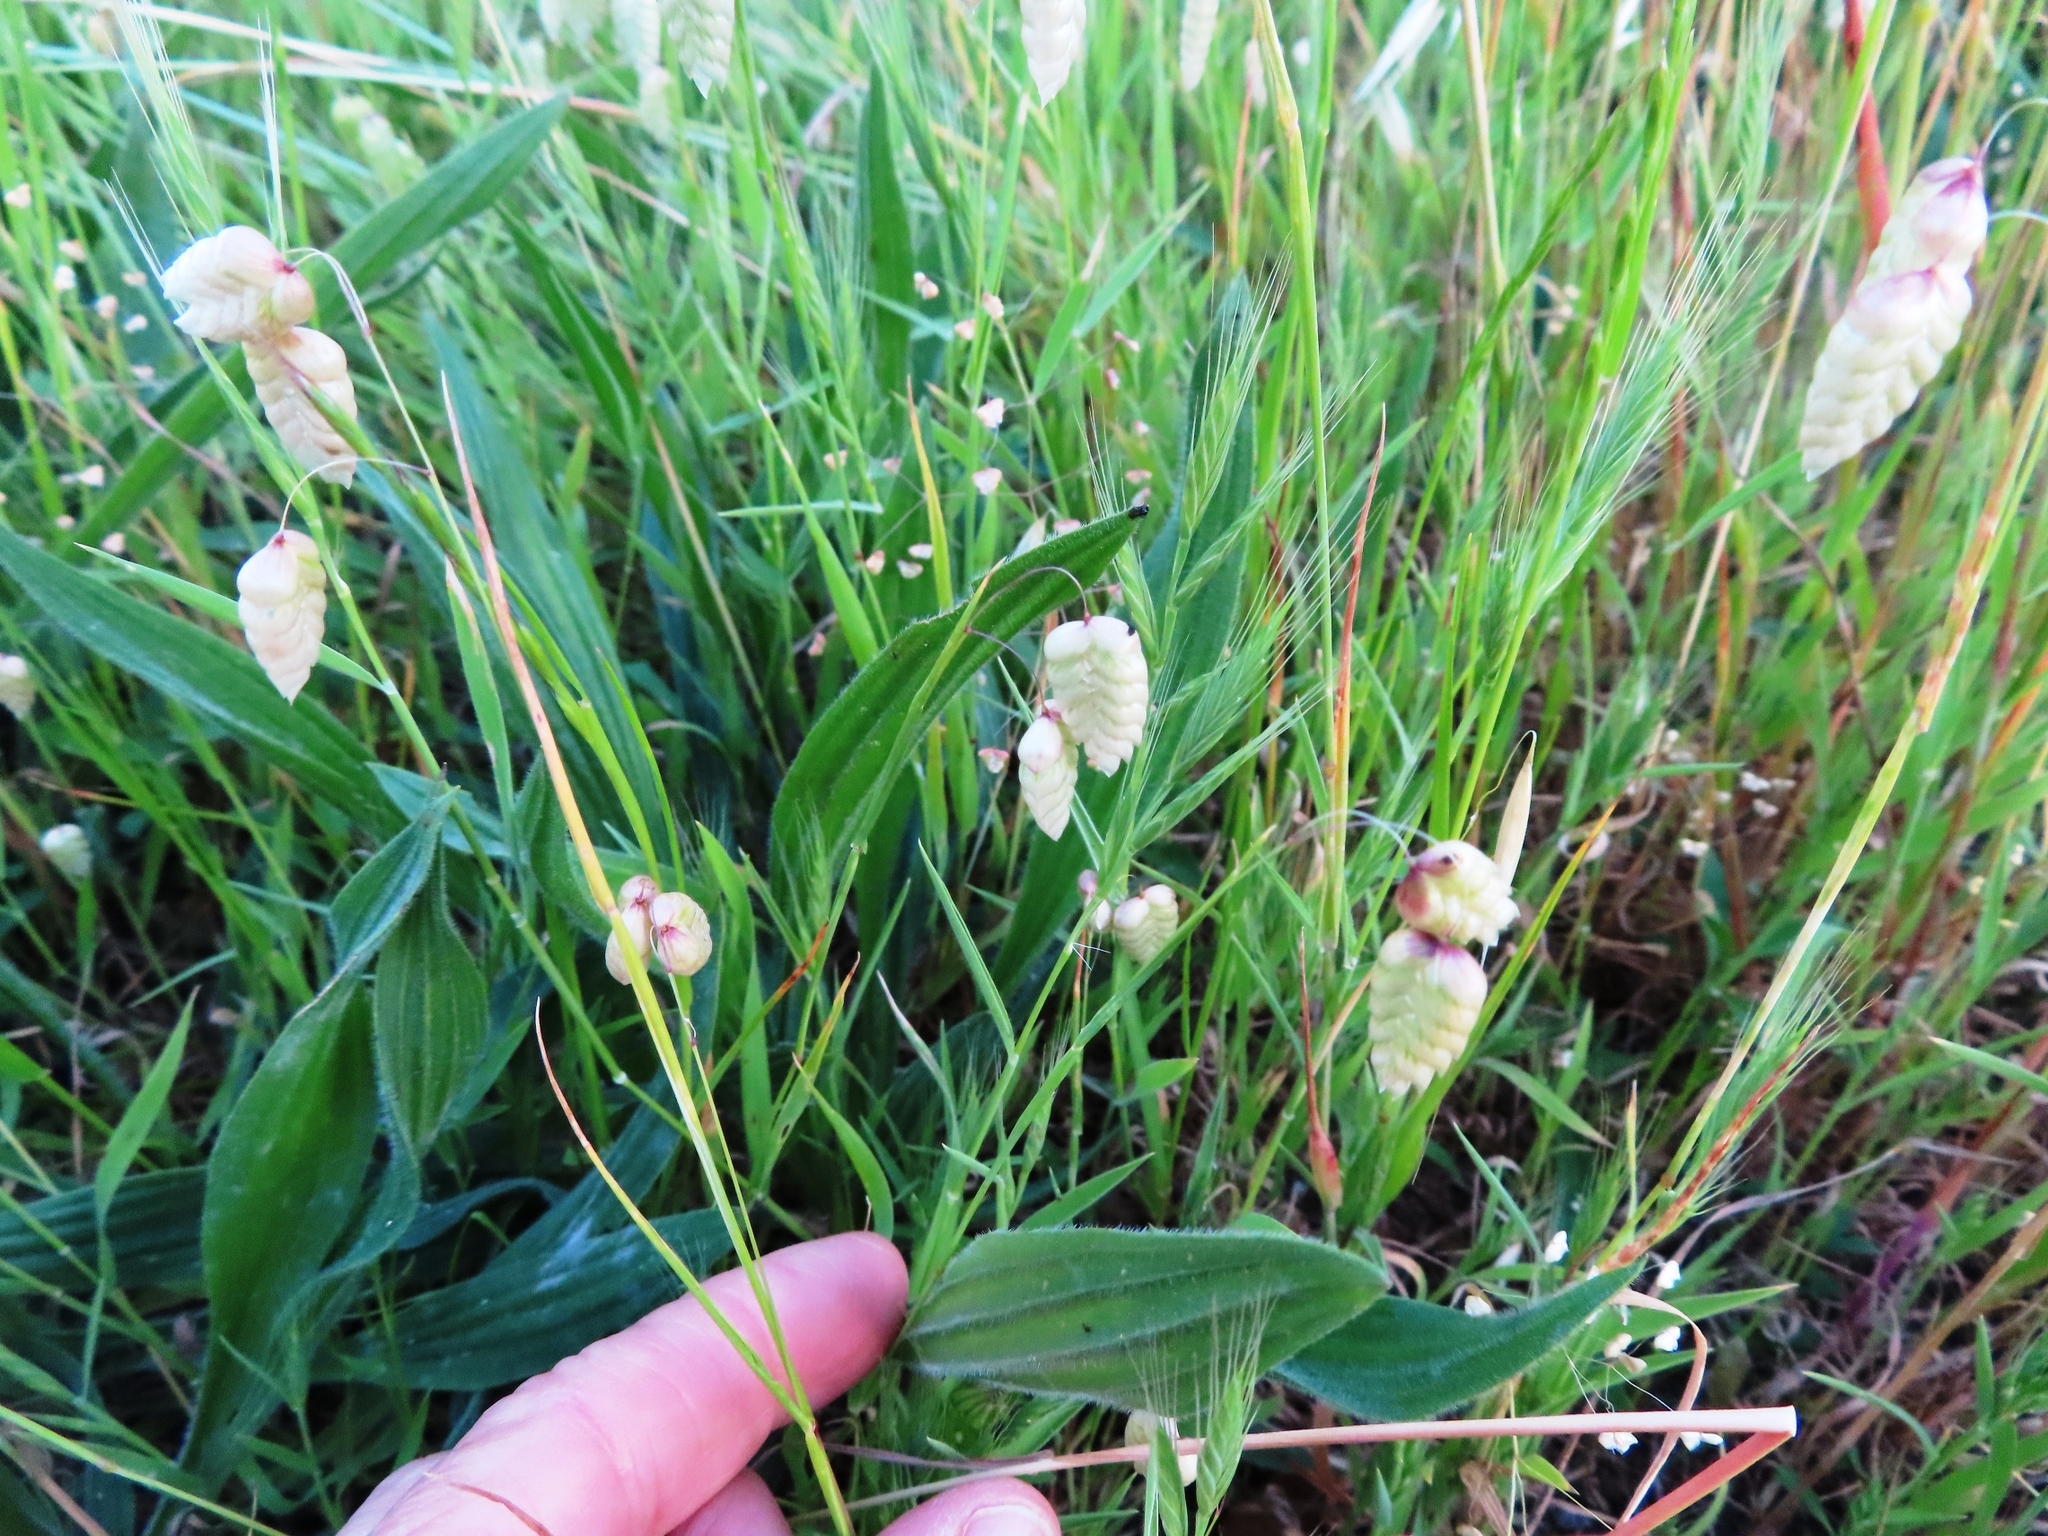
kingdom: Plantae
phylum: Tracheophyta
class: Liliopsida
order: Poales
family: Poaceae
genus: Briza
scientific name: Briza maxima
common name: Big quakinggrass
